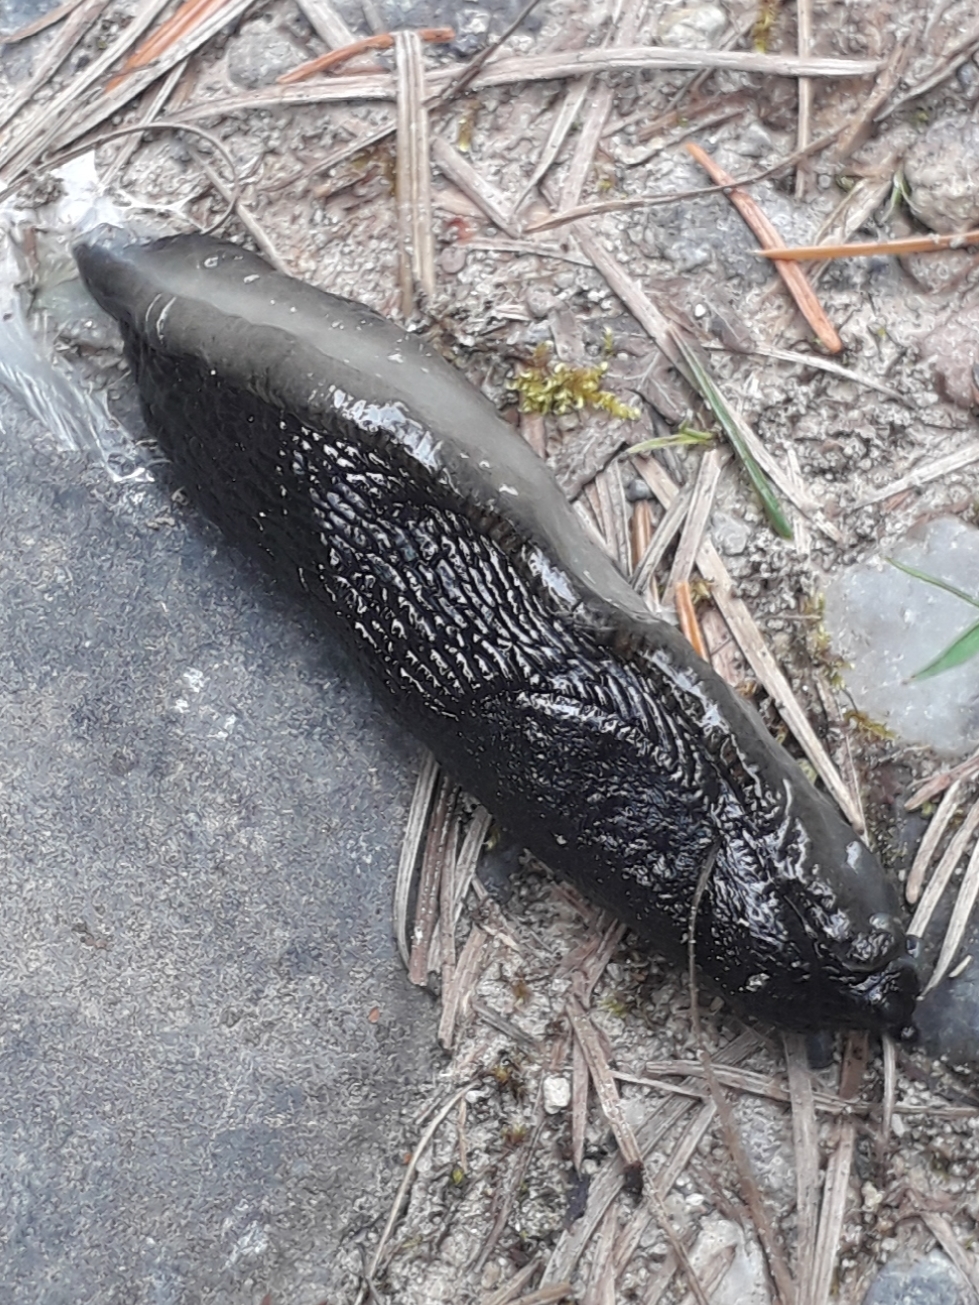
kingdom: Animalia
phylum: Mollusca
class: Gastropoda
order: Stylommatophora
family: Arionidae
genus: Arion
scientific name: Arion ater
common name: Black arion
